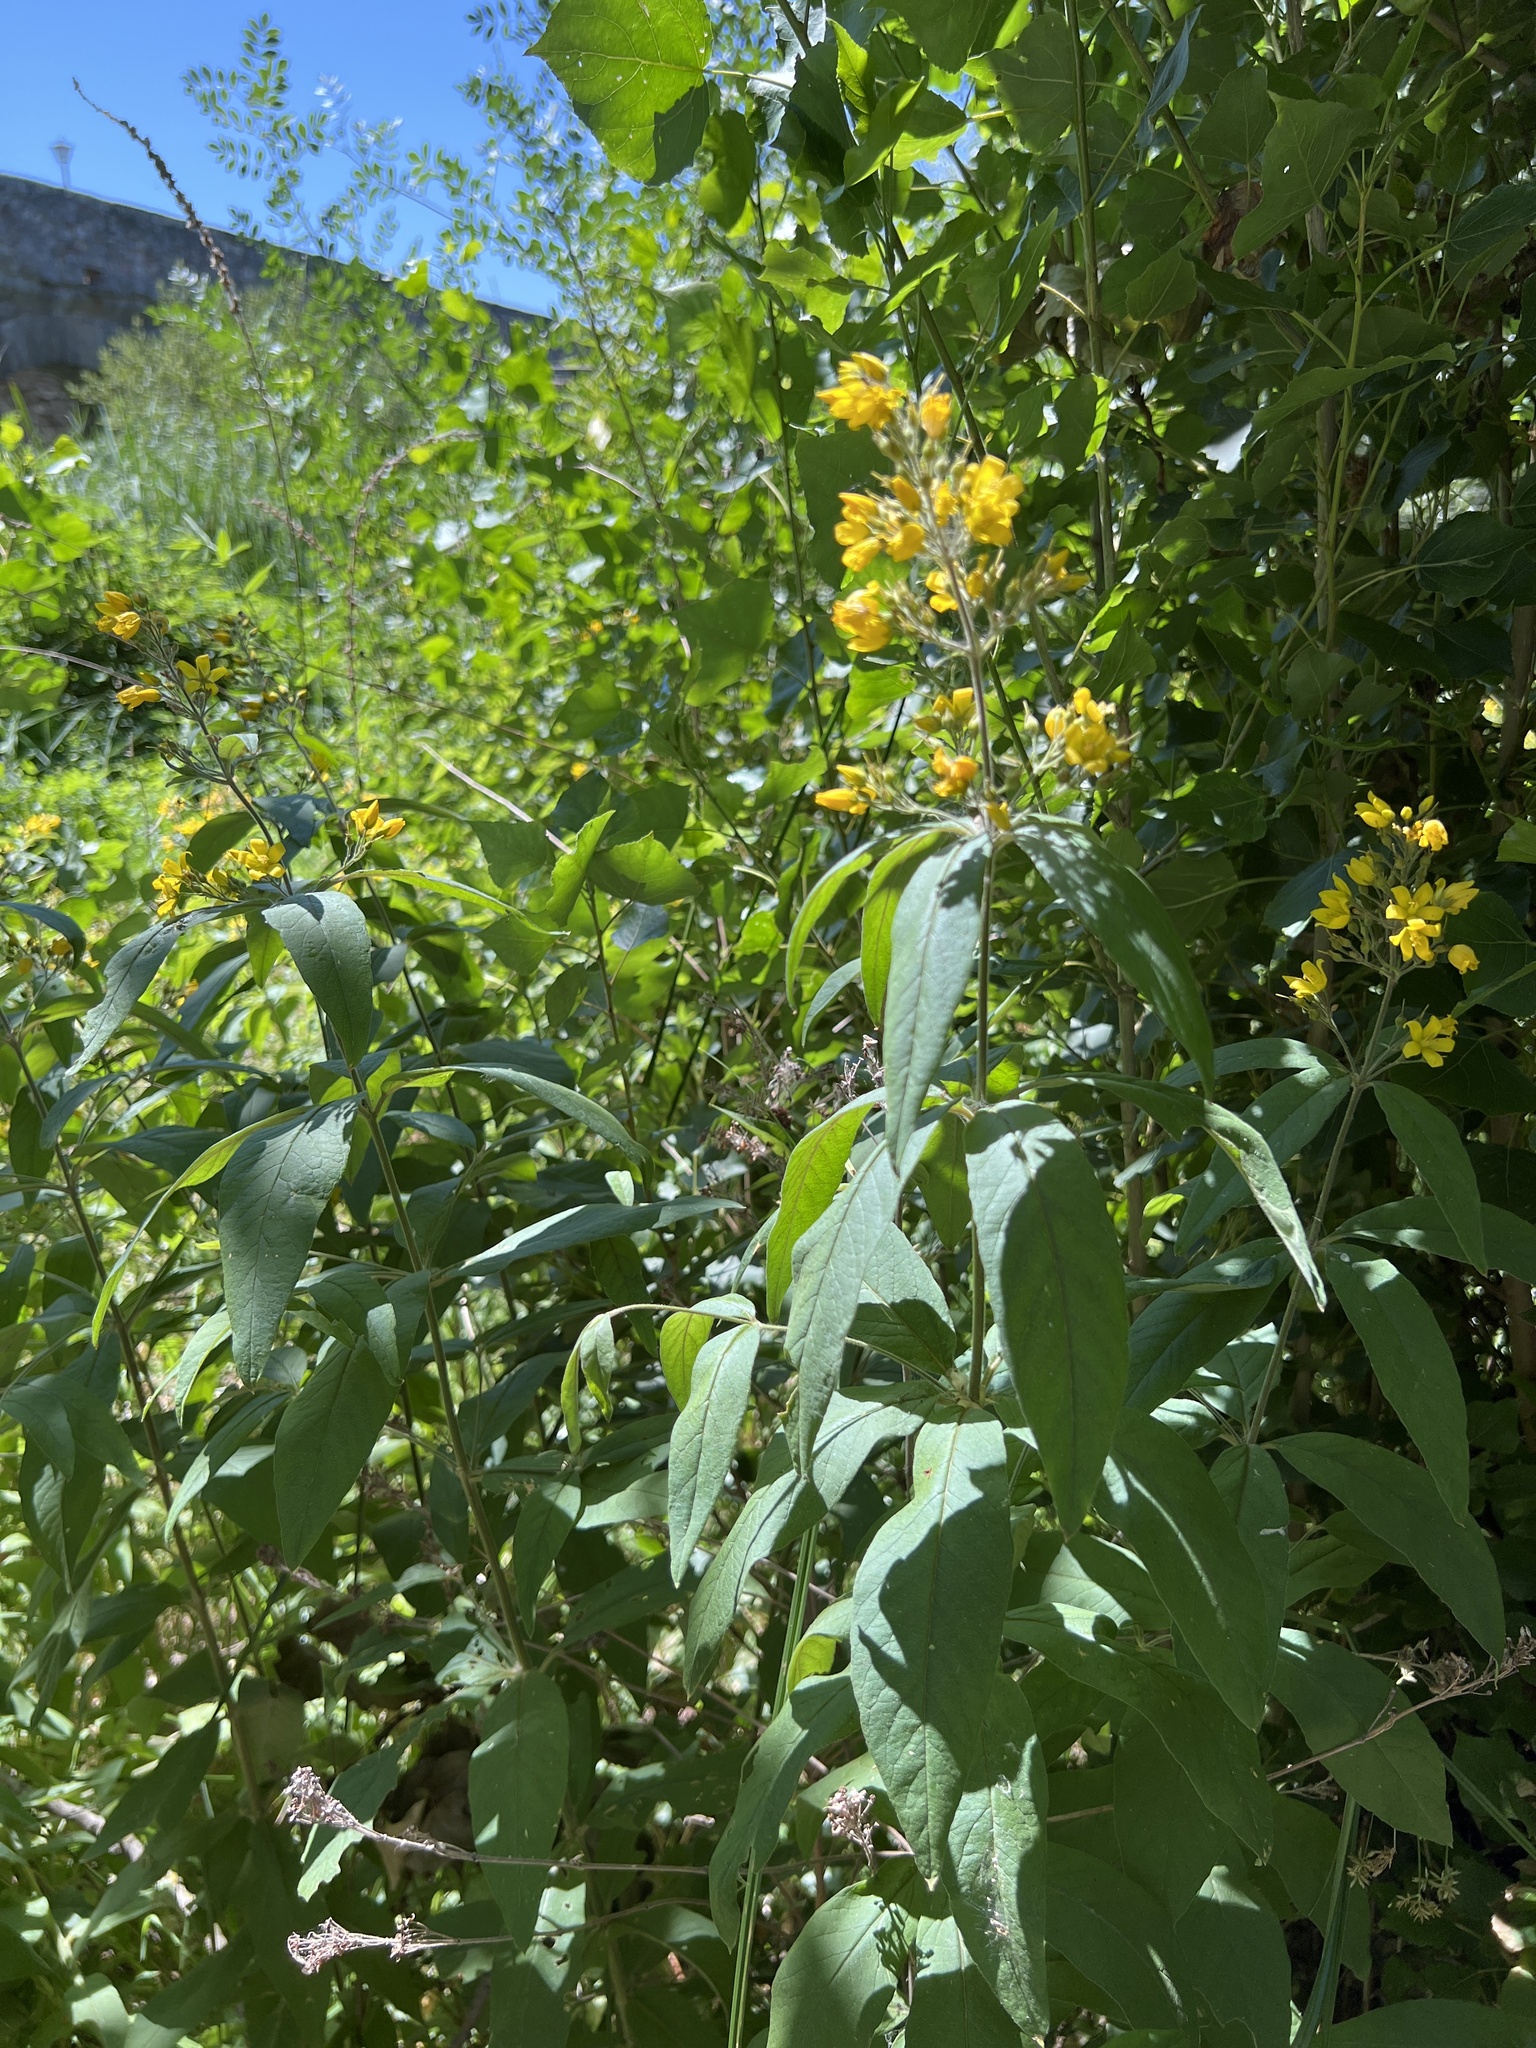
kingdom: Plantae
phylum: Tracheophyta
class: Magnoliopsida
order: Ericales
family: Primulaceae
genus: Lysimachia
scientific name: Lysimachia vulgaris
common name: Yellow loosestrife
